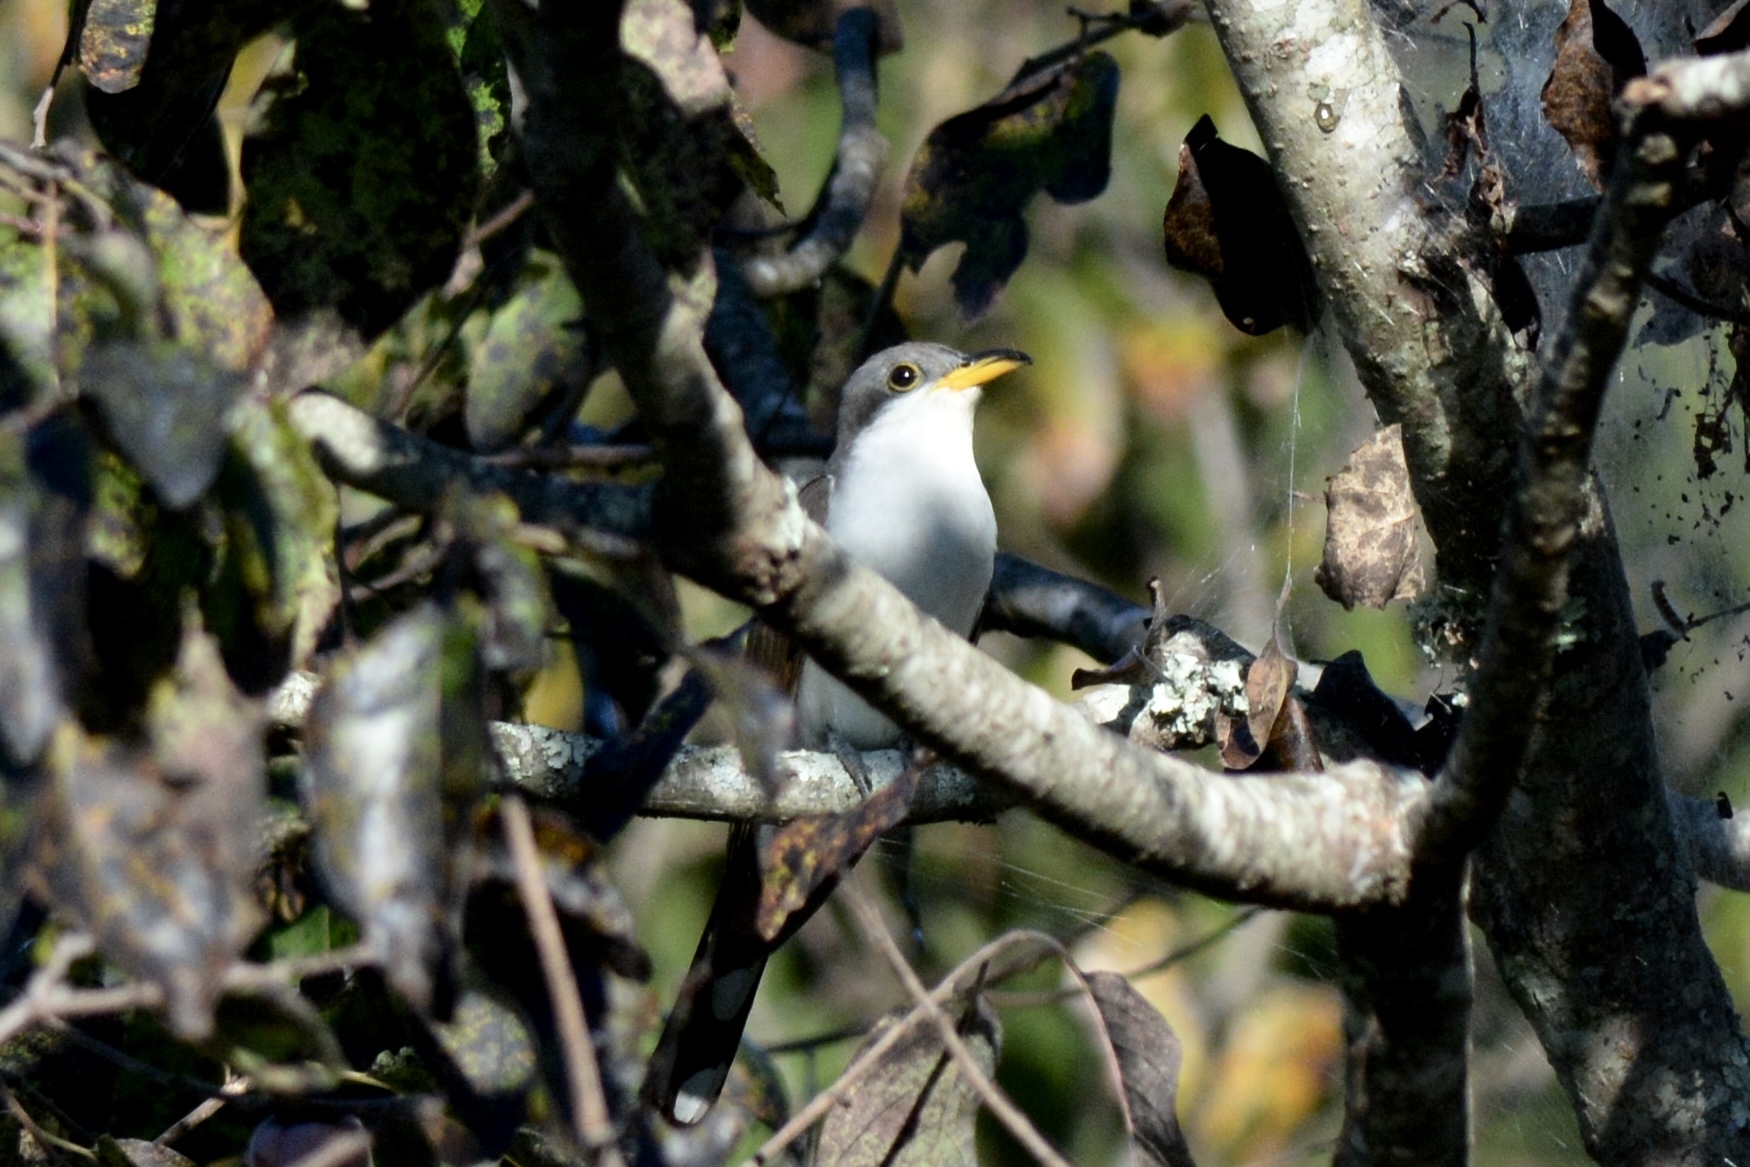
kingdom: Animalia
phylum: Chordata
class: Aves
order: Cuculiformes
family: Cuculidae
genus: Coccyzus
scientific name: Coccyzus americanus
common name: Yellow-billed cuckoo
